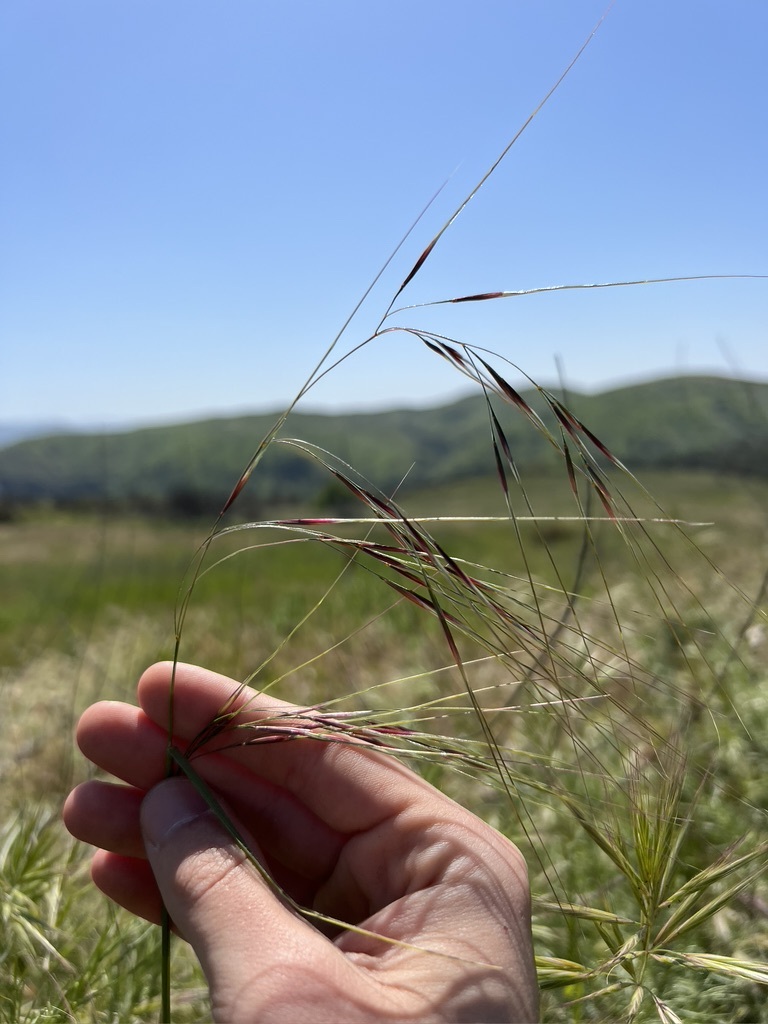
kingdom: Plantae
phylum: Tracheophyta
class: Liliopsida
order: Poales
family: Poaceae
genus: Nassella
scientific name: Nassella pulchra
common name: Purple needlegrass
